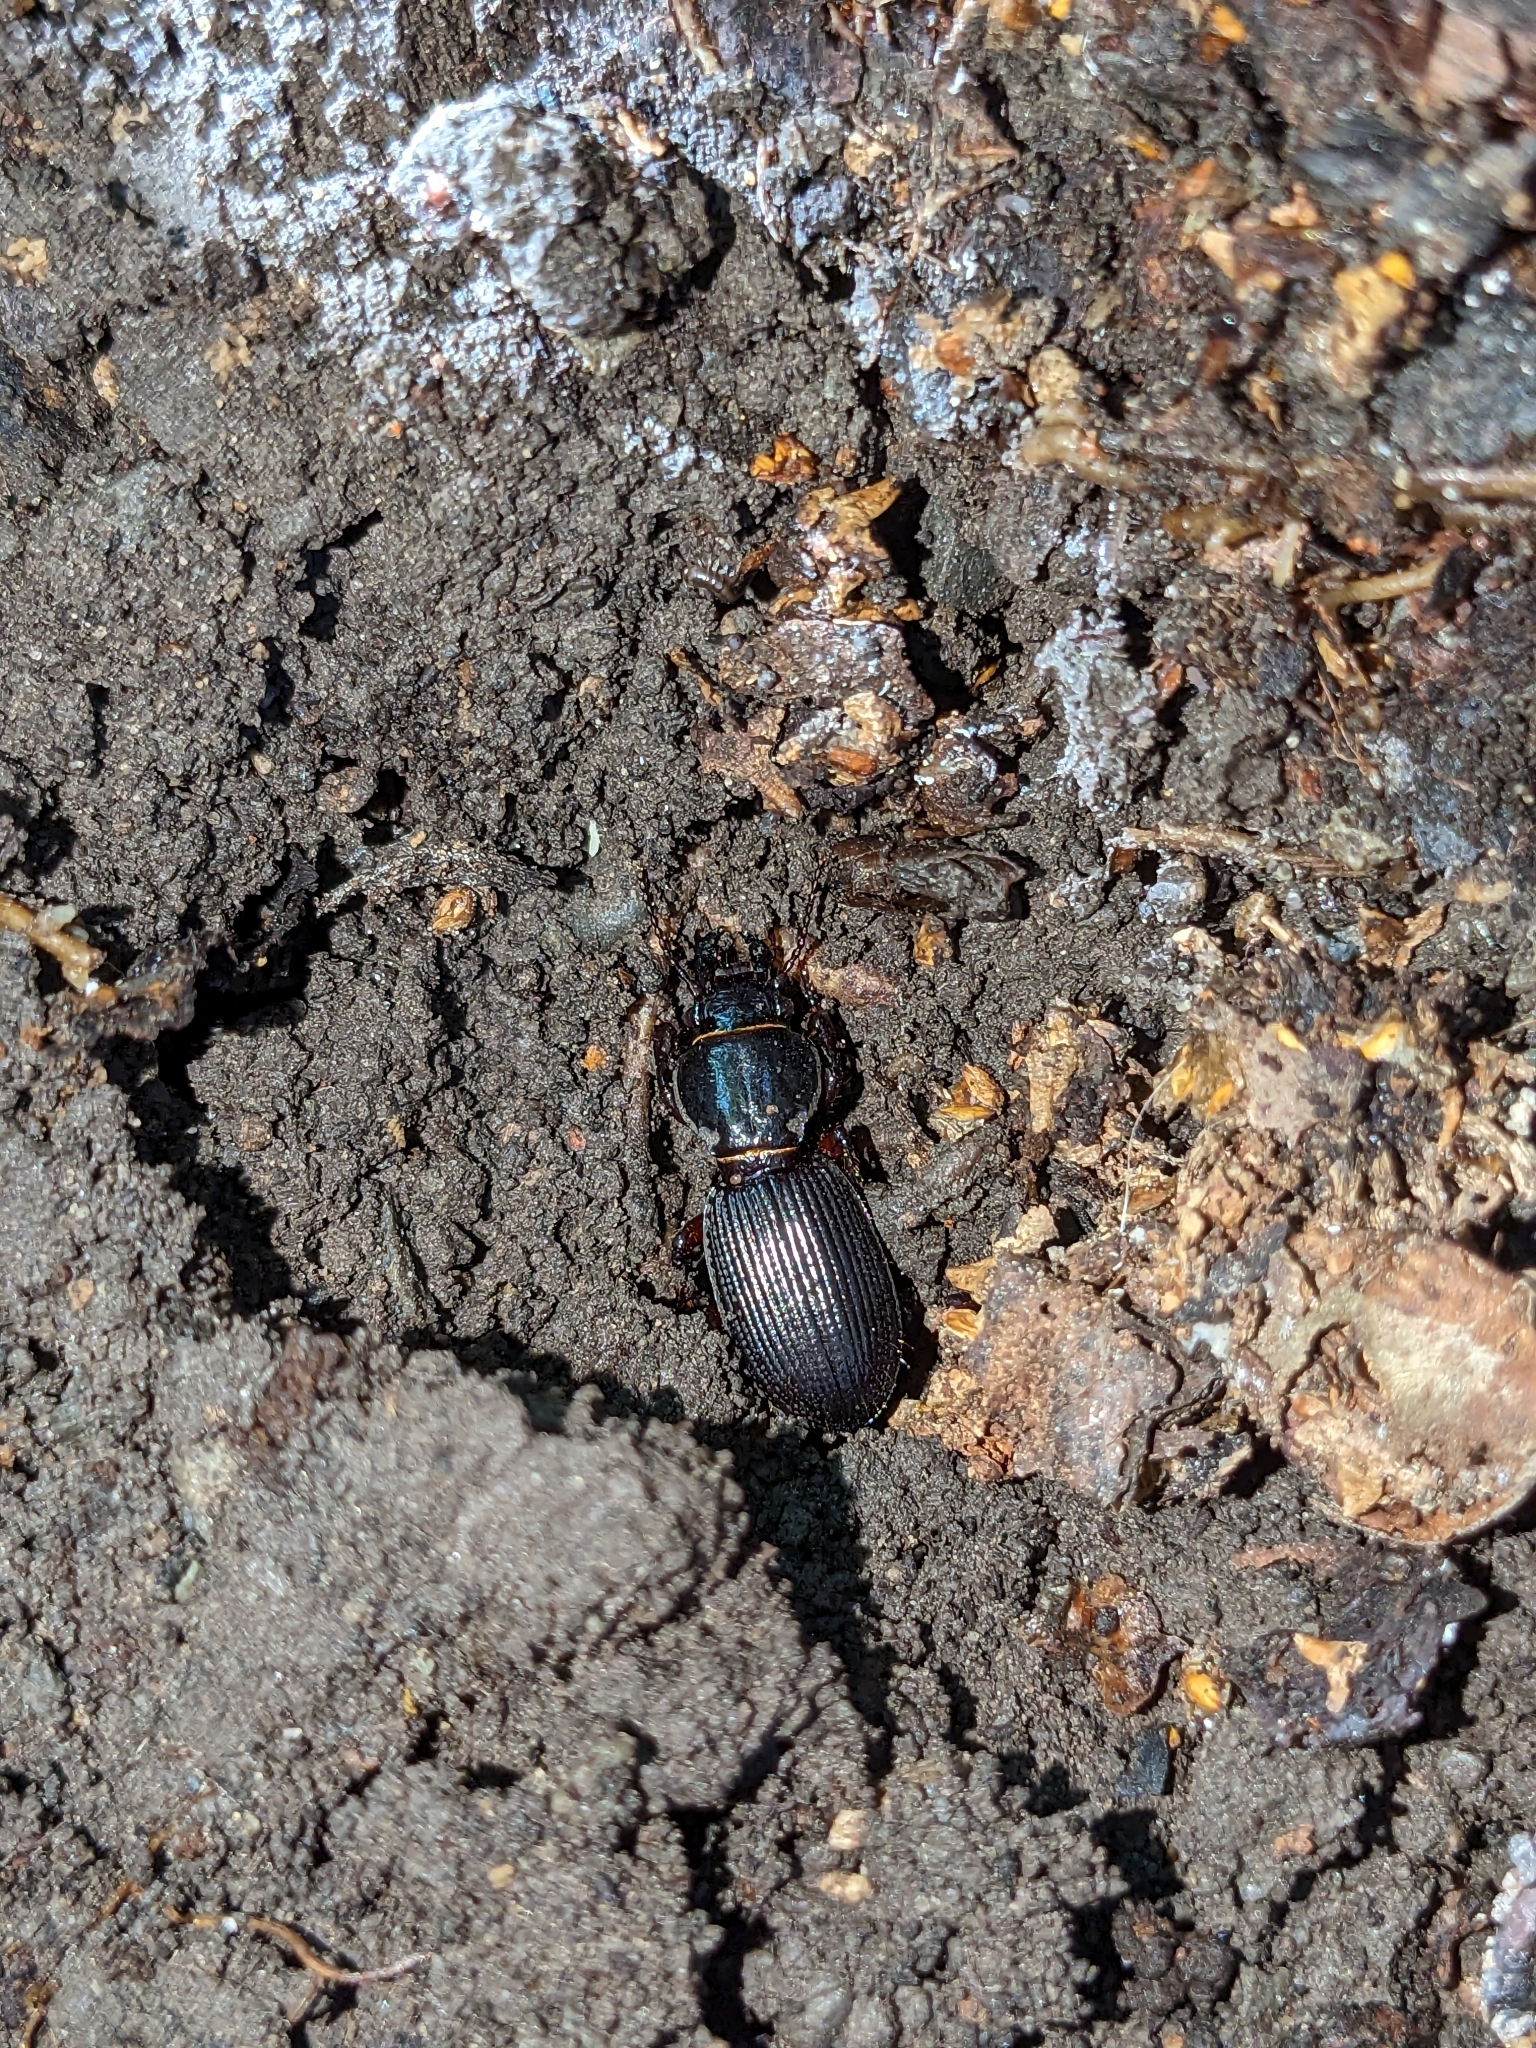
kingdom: Animalia
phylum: Arthropoda
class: Insecta
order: Coleoptera
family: Carabidae
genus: Mecodema
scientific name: Mecodema moniliferum
